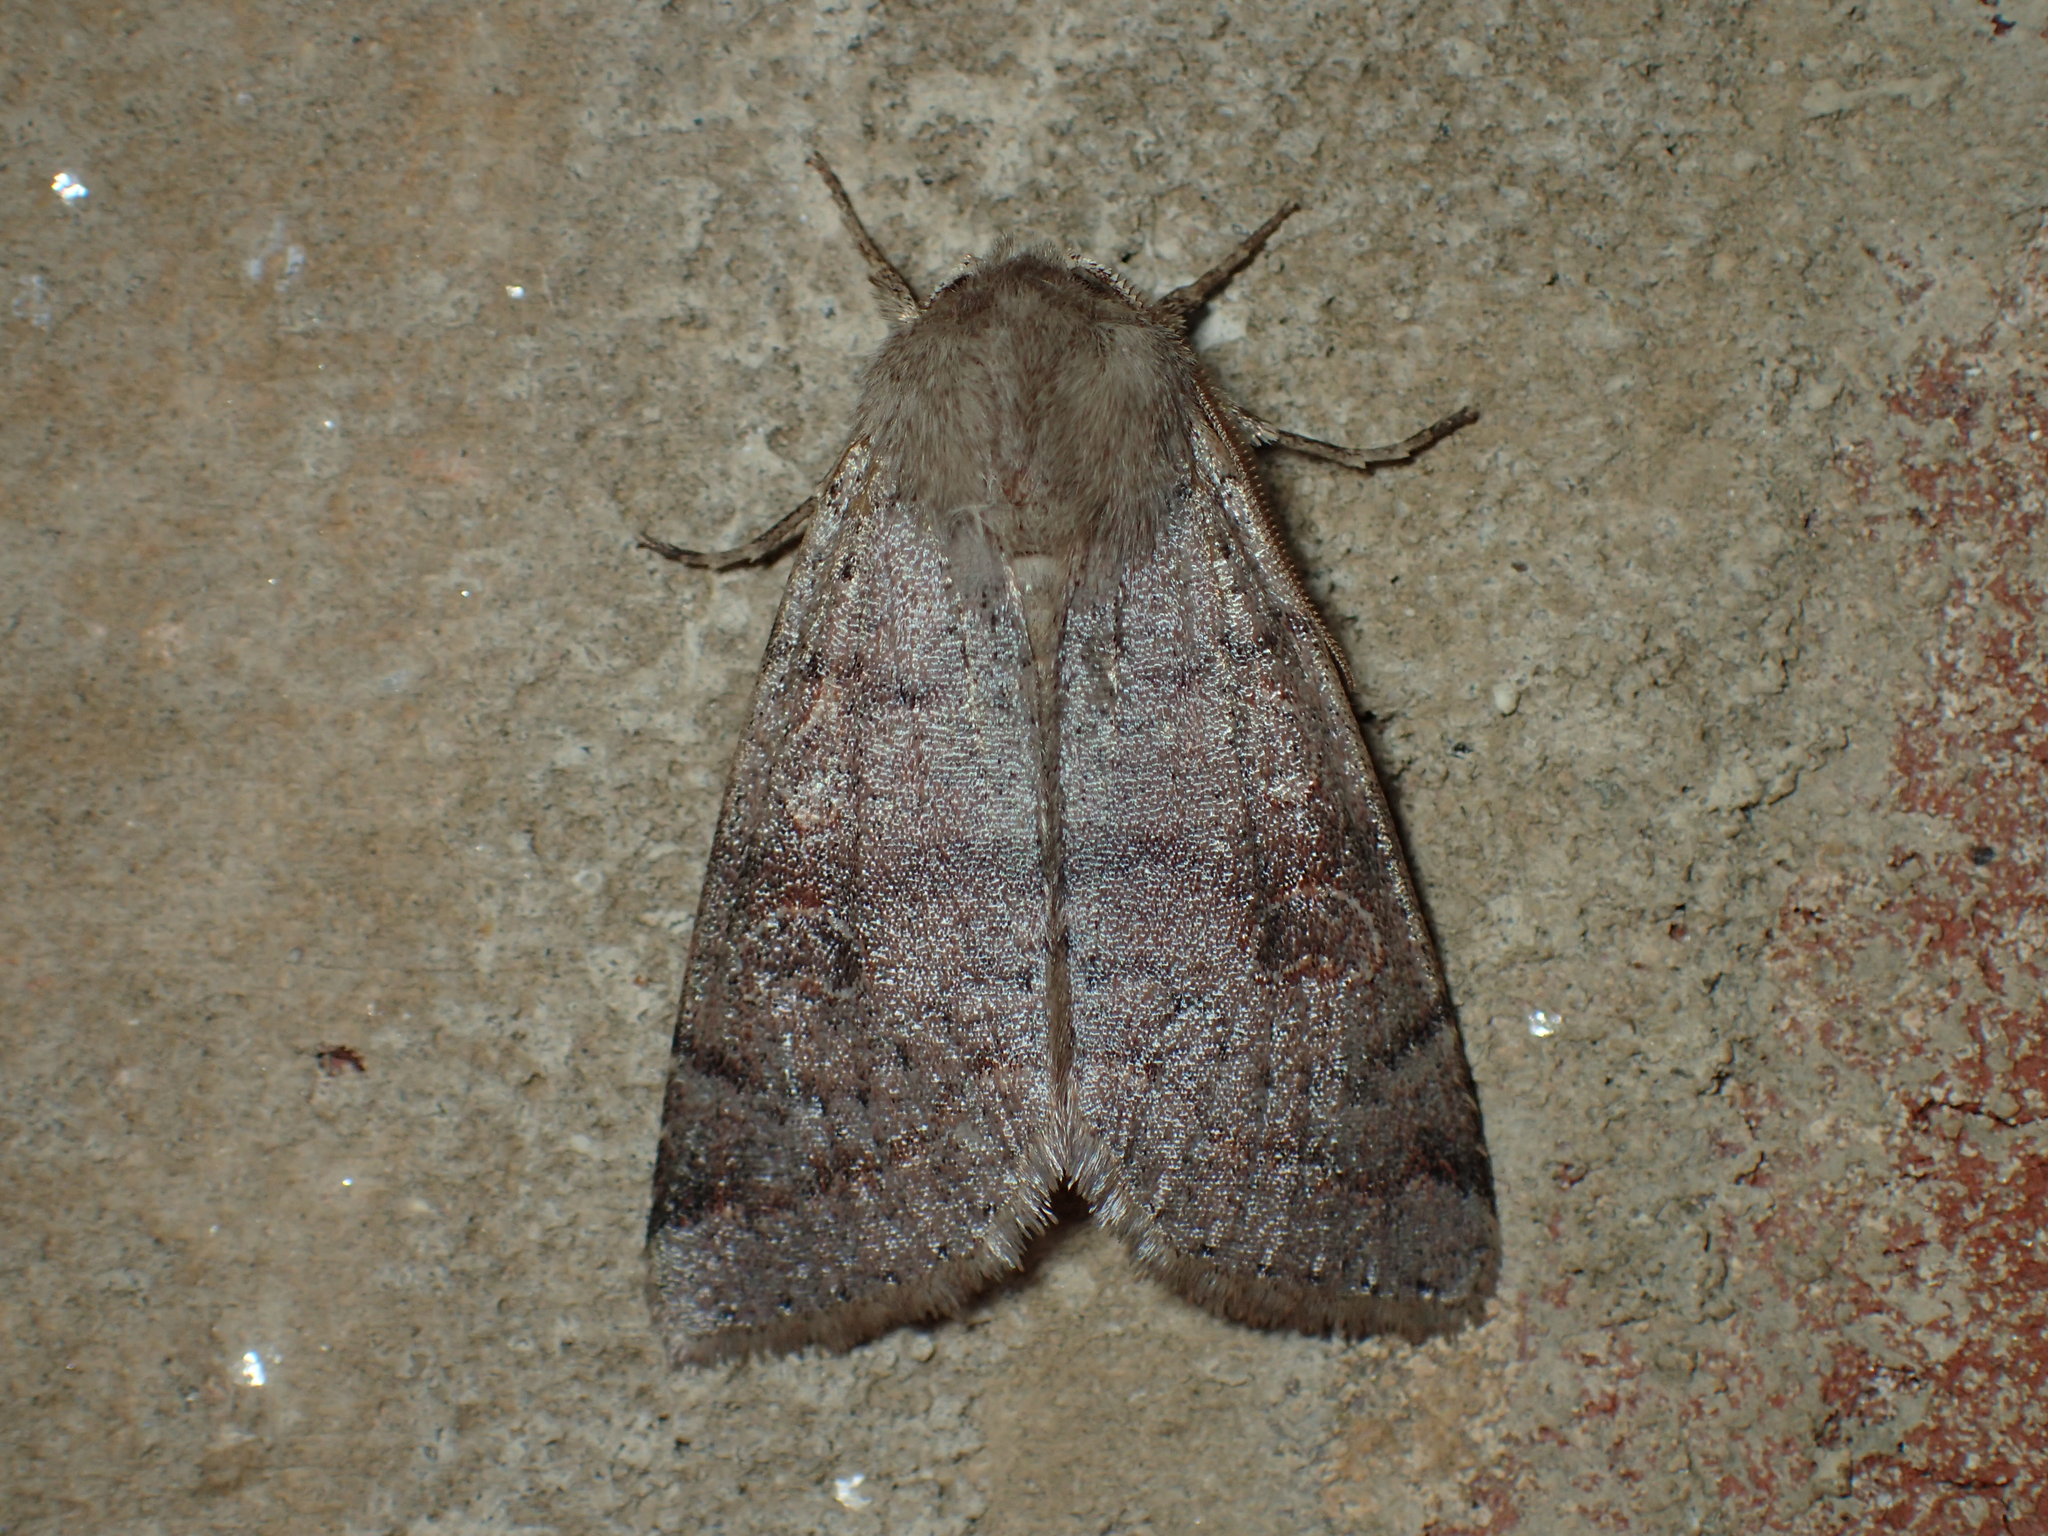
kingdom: Animalia
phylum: Arthropoda
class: Insecta
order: Lepidoptera
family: Noctuidae
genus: Orthosia
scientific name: Orthosia alurina
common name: Gray quaker
